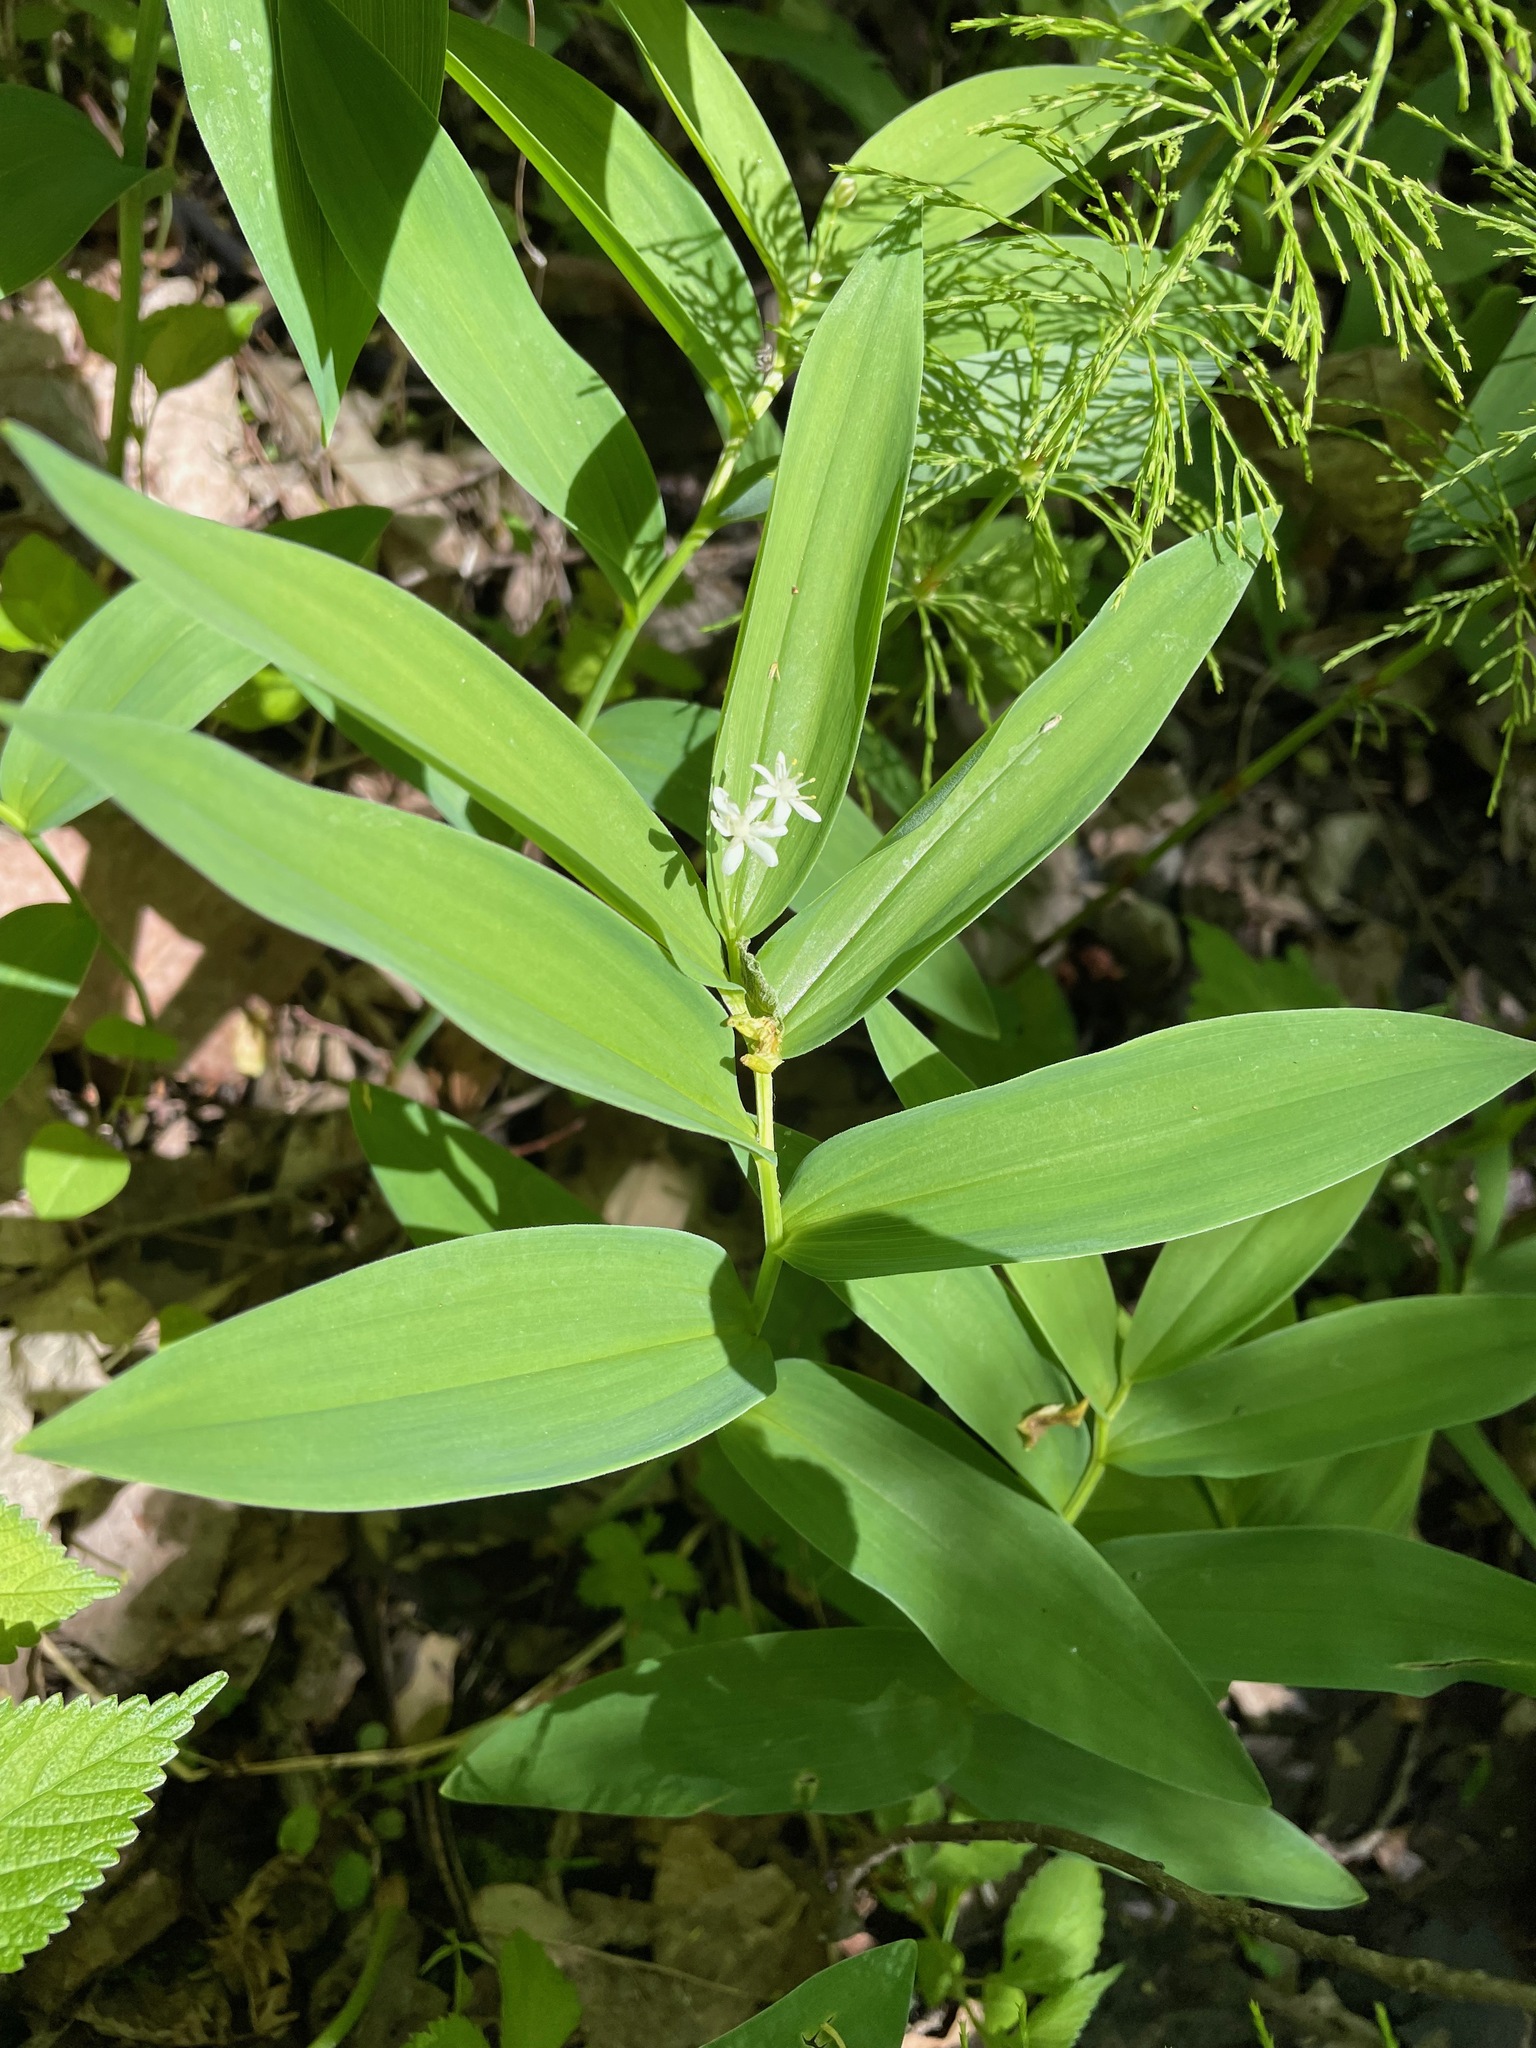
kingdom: Plantae
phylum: Tracheophyta
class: Liliopsida
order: Asparagales
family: Asparagaceae
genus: Maianthemum
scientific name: Maianthemum stellatum
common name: Little false solomon's seal
